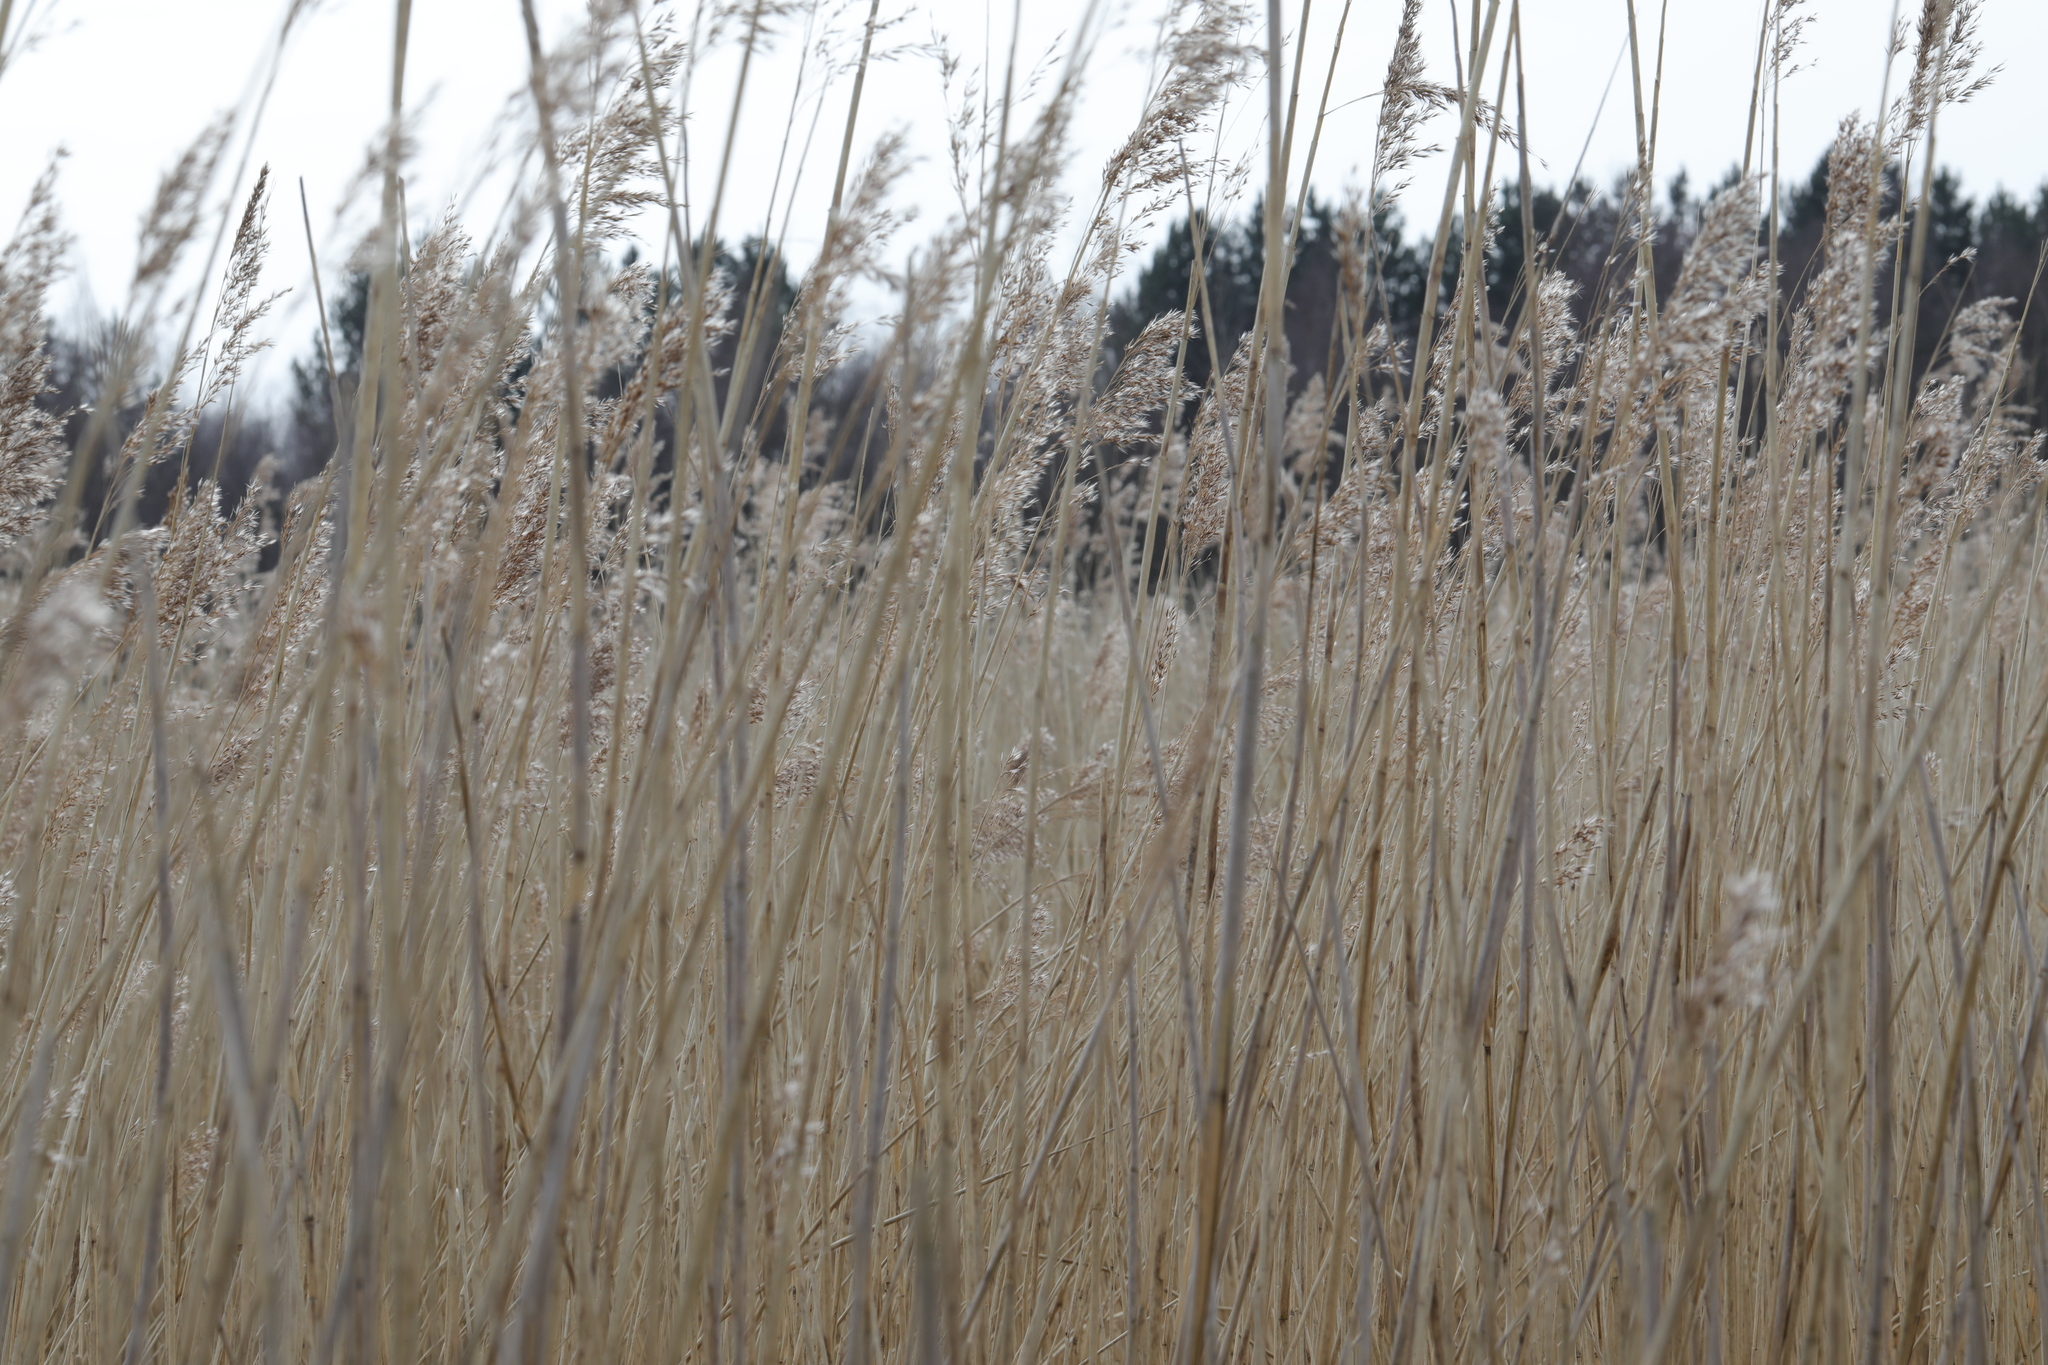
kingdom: Plantae
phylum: Tracheophyta
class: Liliopsida
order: Poales
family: Poaceae
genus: Phragmites
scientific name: Phragmites australis
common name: Common reed
